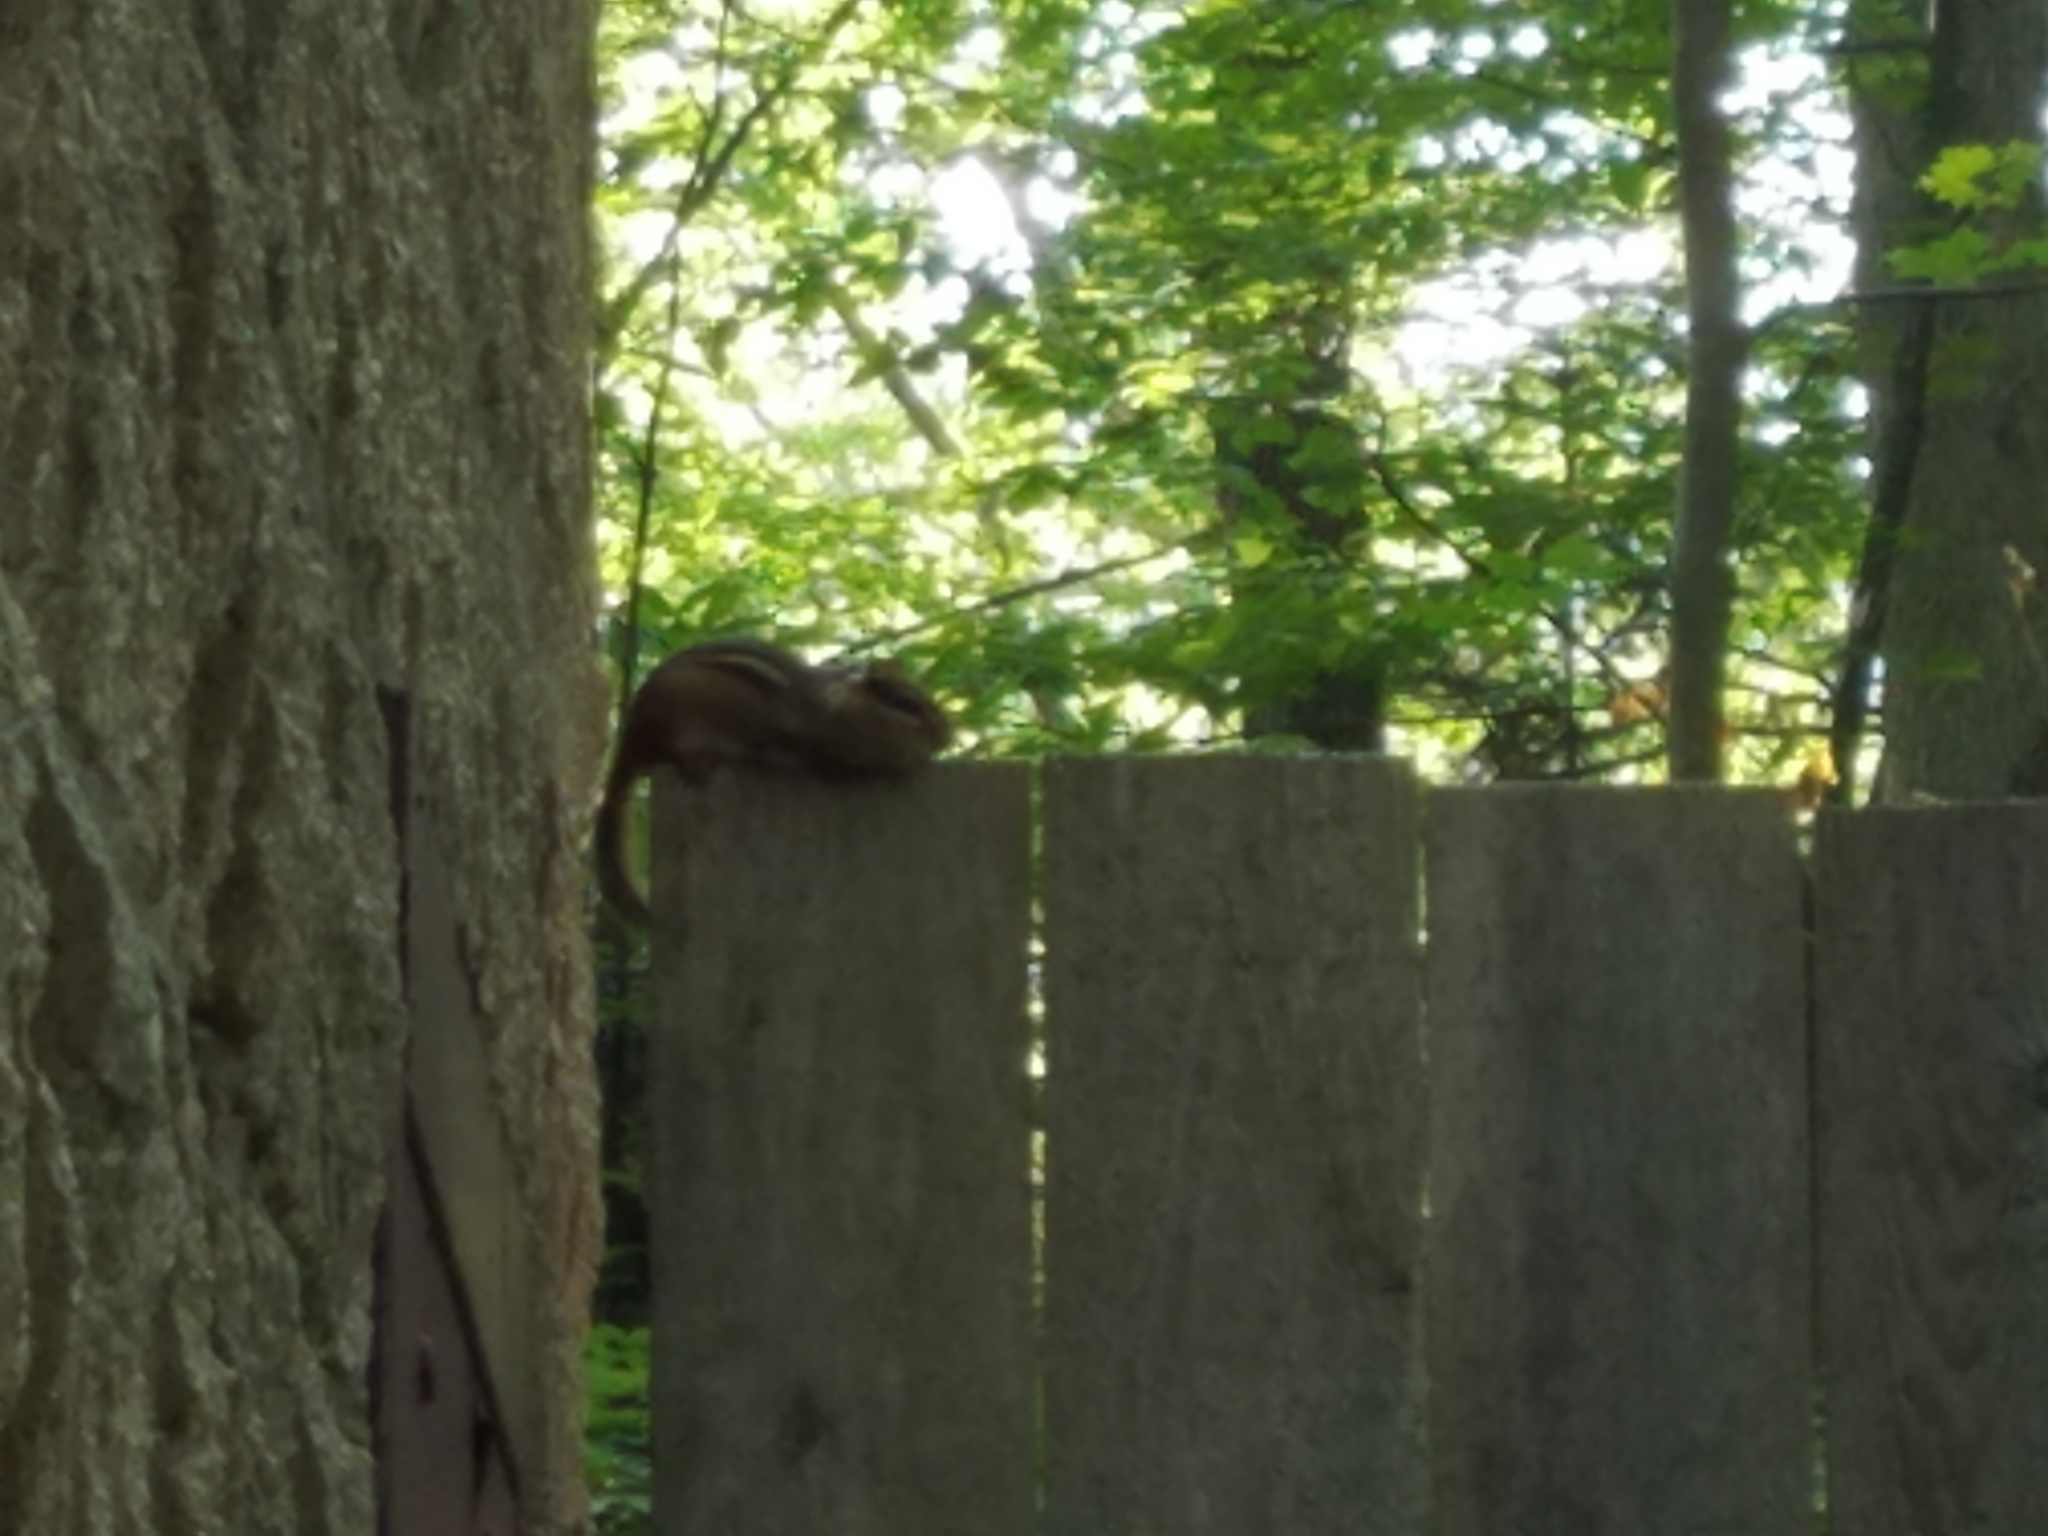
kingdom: Animalia
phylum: Chordata
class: Mammalia
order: Rodentia
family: Sciuridae
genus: Tamias
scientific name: Tamias striatus
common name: Eastern chipmunk
